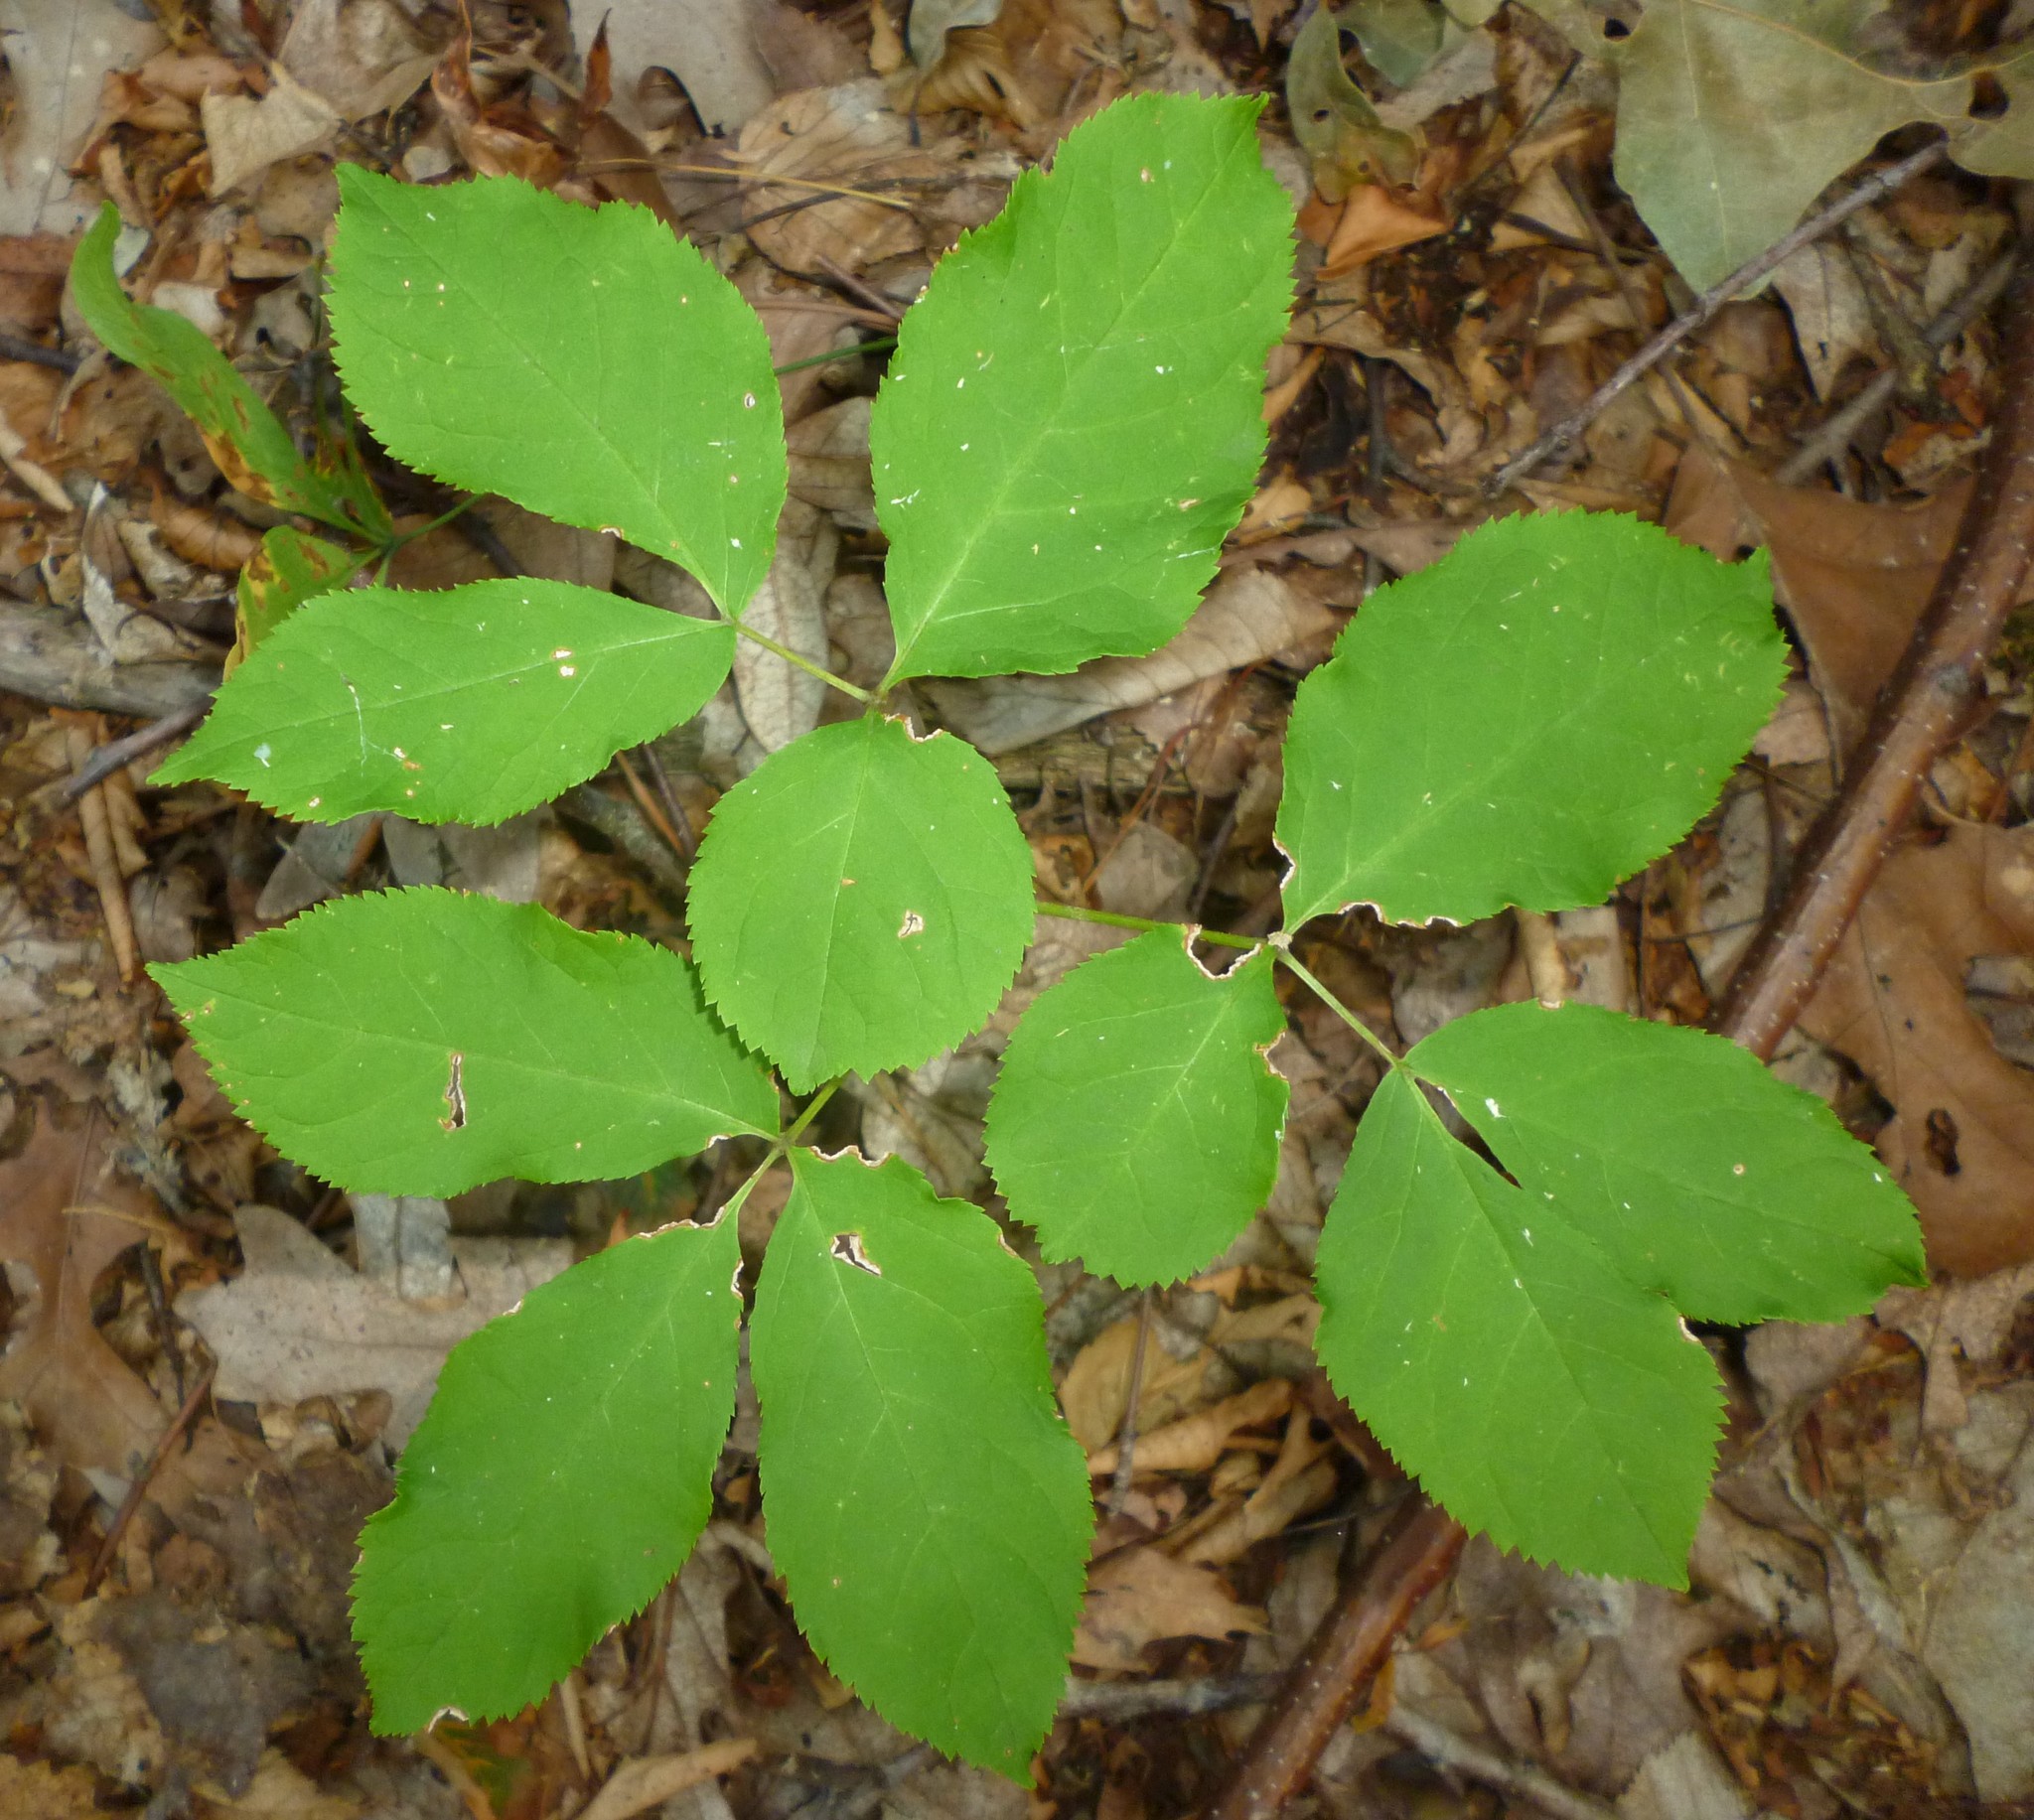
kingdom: Plantae
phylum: Tracheophyta
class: Magnoliopsida
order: Apiales
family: Araliaceae
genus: Aralia
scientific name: Aralia nudicaulis
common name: Wild sarsaparilla
